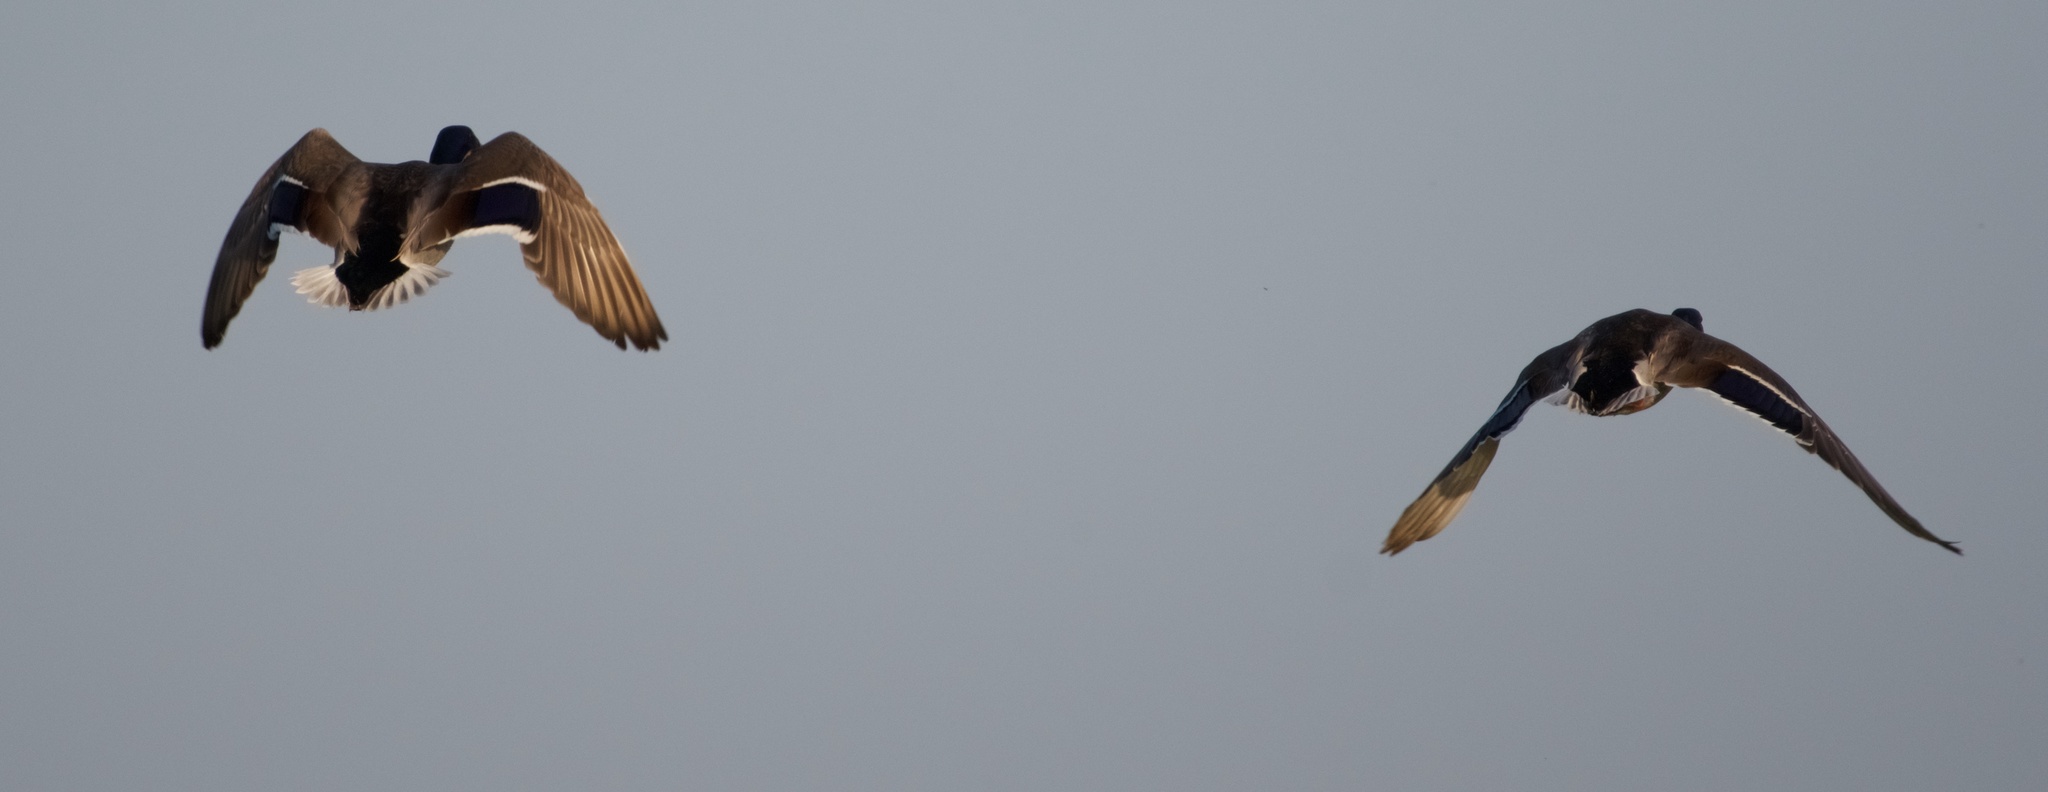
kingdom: Animalia
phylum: Chordata
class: Aves
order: Anseriformes
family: Anatidae
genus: Anas
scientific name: Anas platyrhynchos
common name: Mallard
